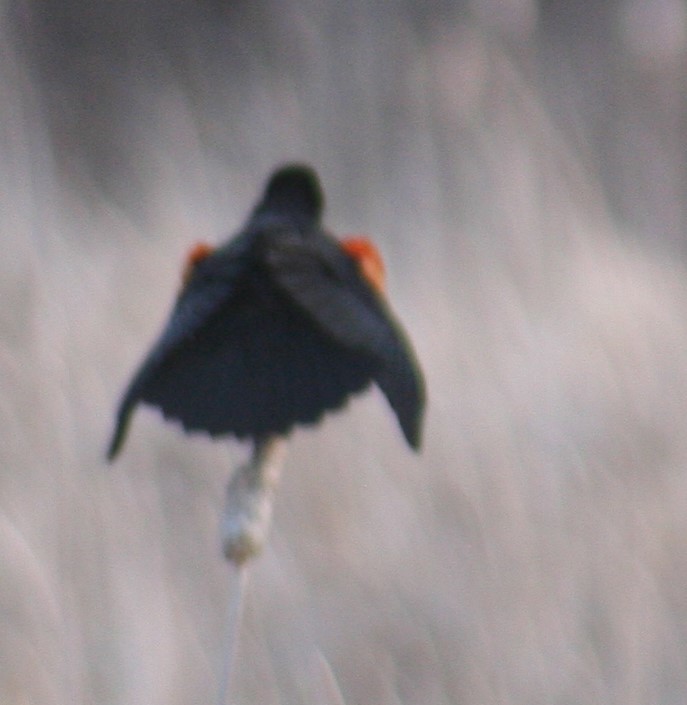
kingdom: Animalia
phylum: Chordata
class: Aves
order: Passeriformes
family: Icteridae
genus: Agelaius
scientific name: Agelaius phoeniceus
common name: Red-winged blackbird
